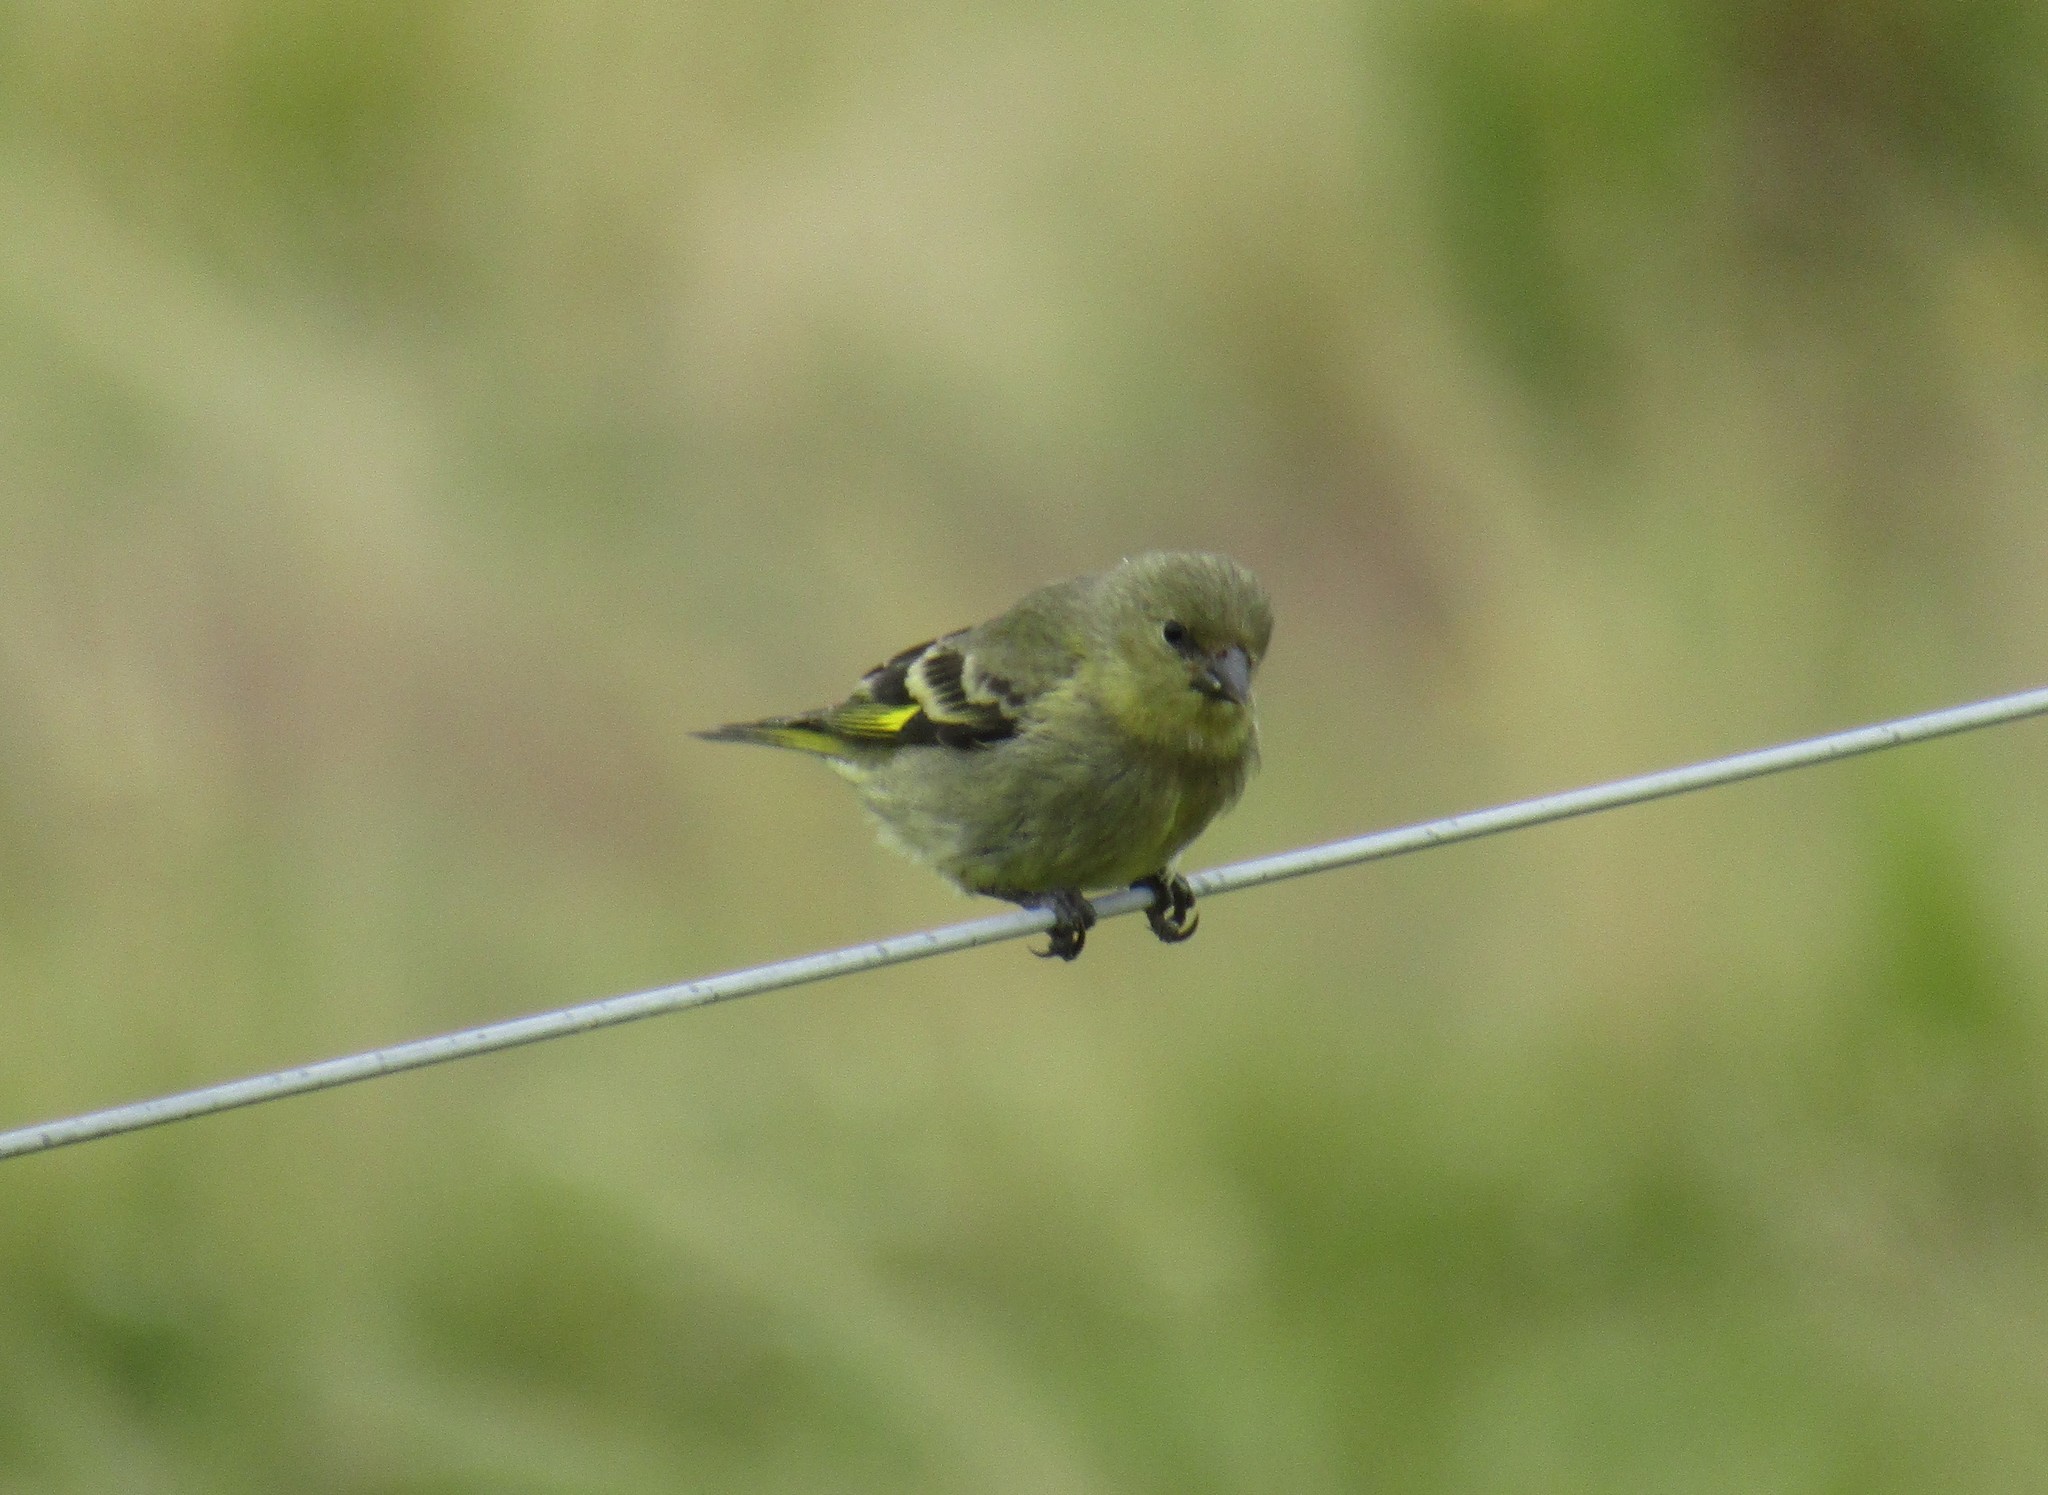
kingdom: Animalia
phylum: Chordata
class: Aves
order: Passeriformes
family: Fringillidae
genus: Spinus
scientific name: Spinus magellanicus
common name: Hooded siskin
